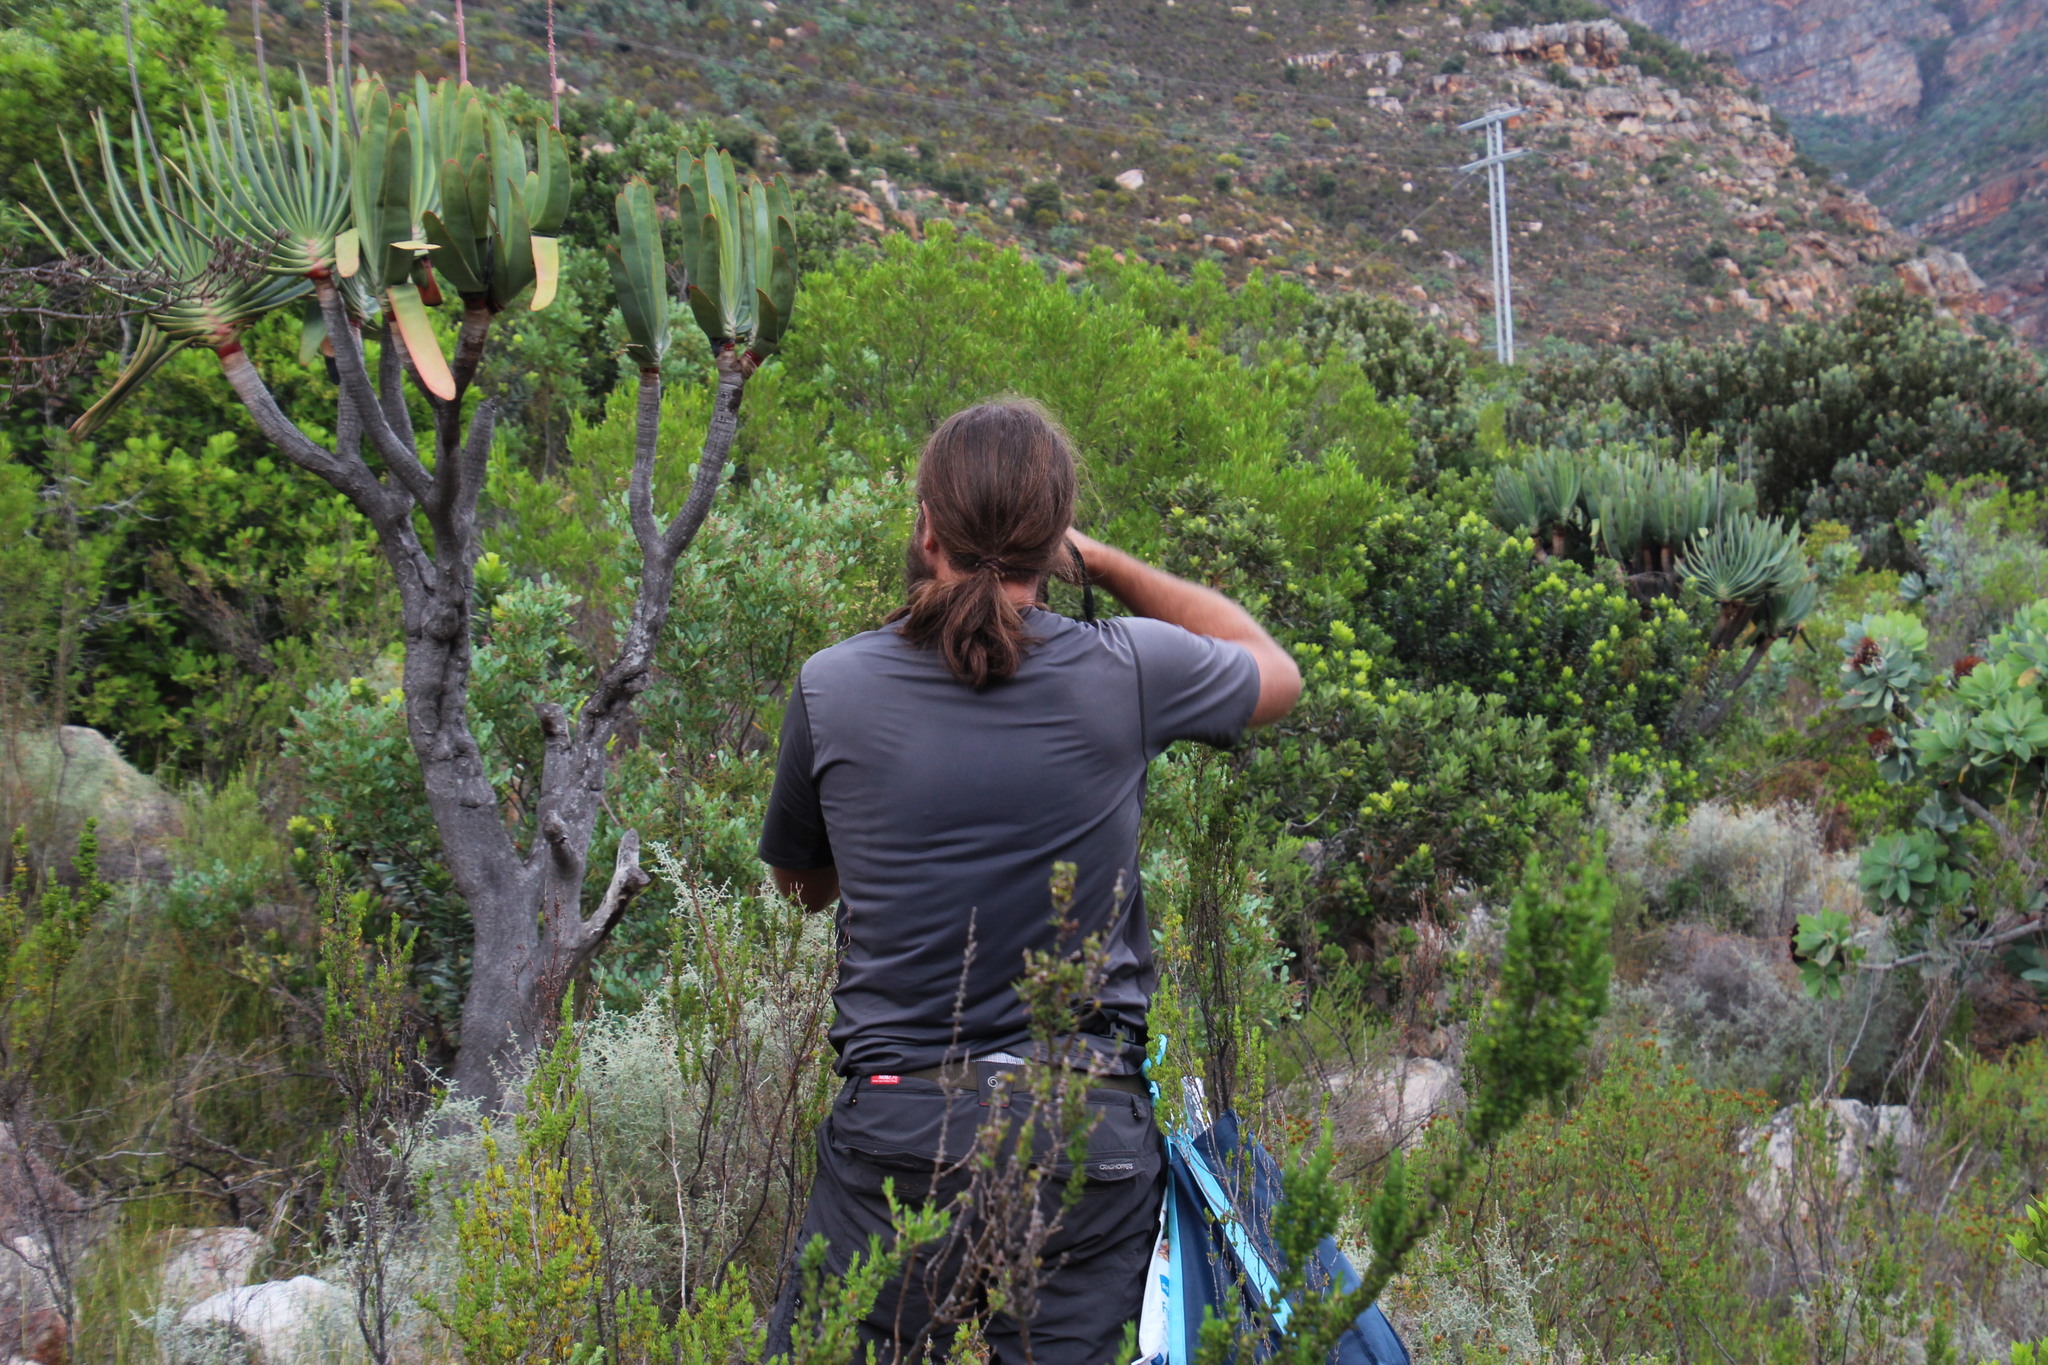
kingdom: Plantae
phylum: Tracheophyta
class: Liliopsida
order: Asparagales
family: Asphodelaceae
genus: Kumara
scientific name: Kumara plicatilis
